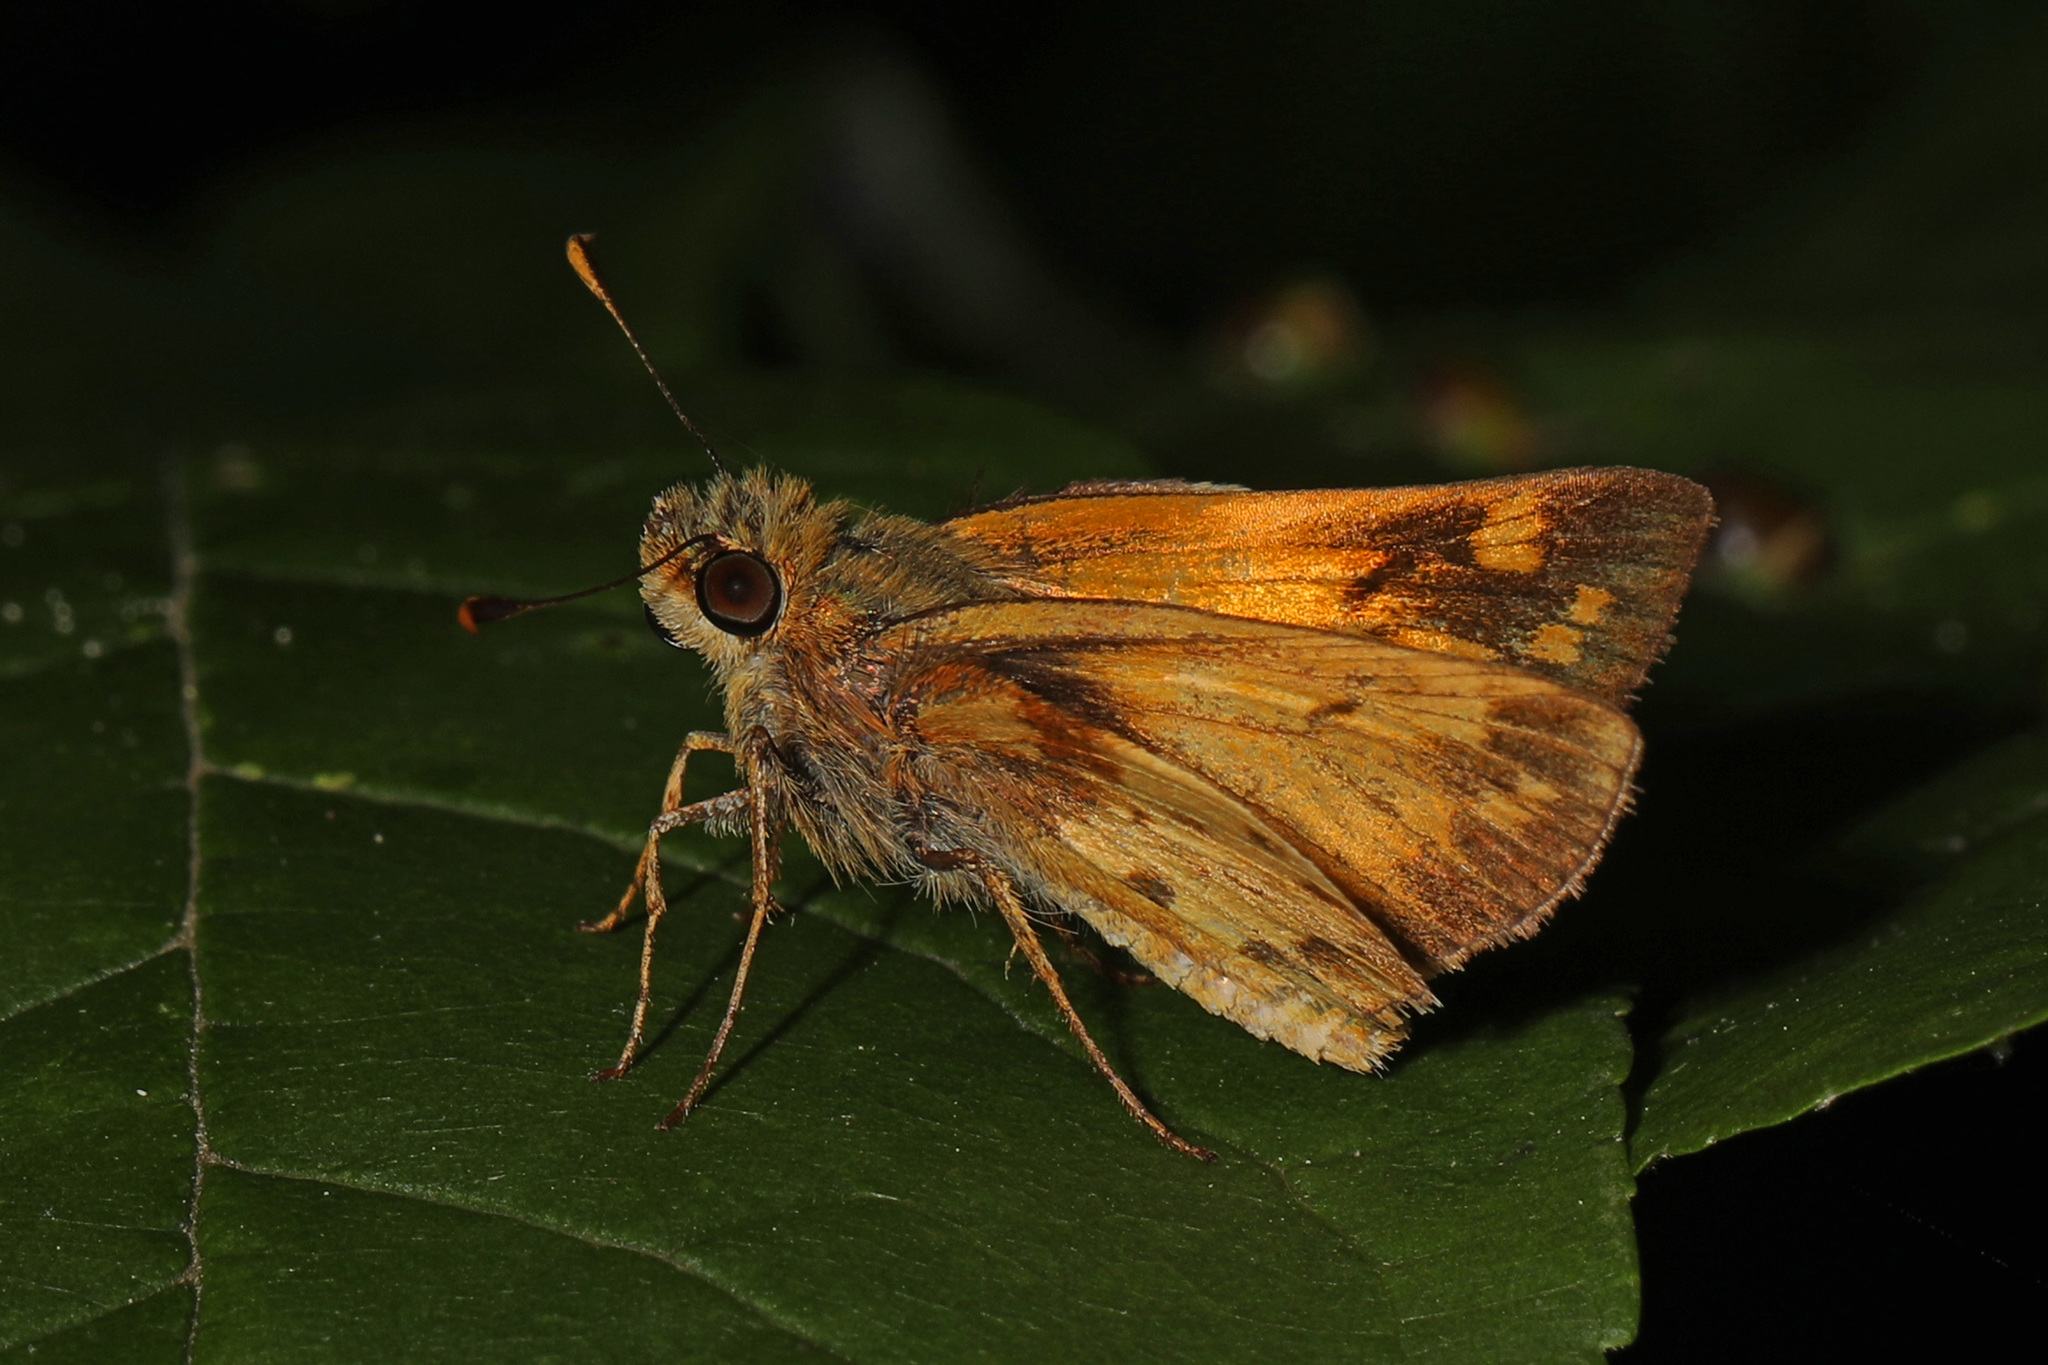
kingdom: Animalia
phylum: Arthropoda
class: Insecta
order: Lepidoptera
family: Hesperiidae
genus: Lon
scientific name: Lon zabulon
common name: Zabulon skipper
